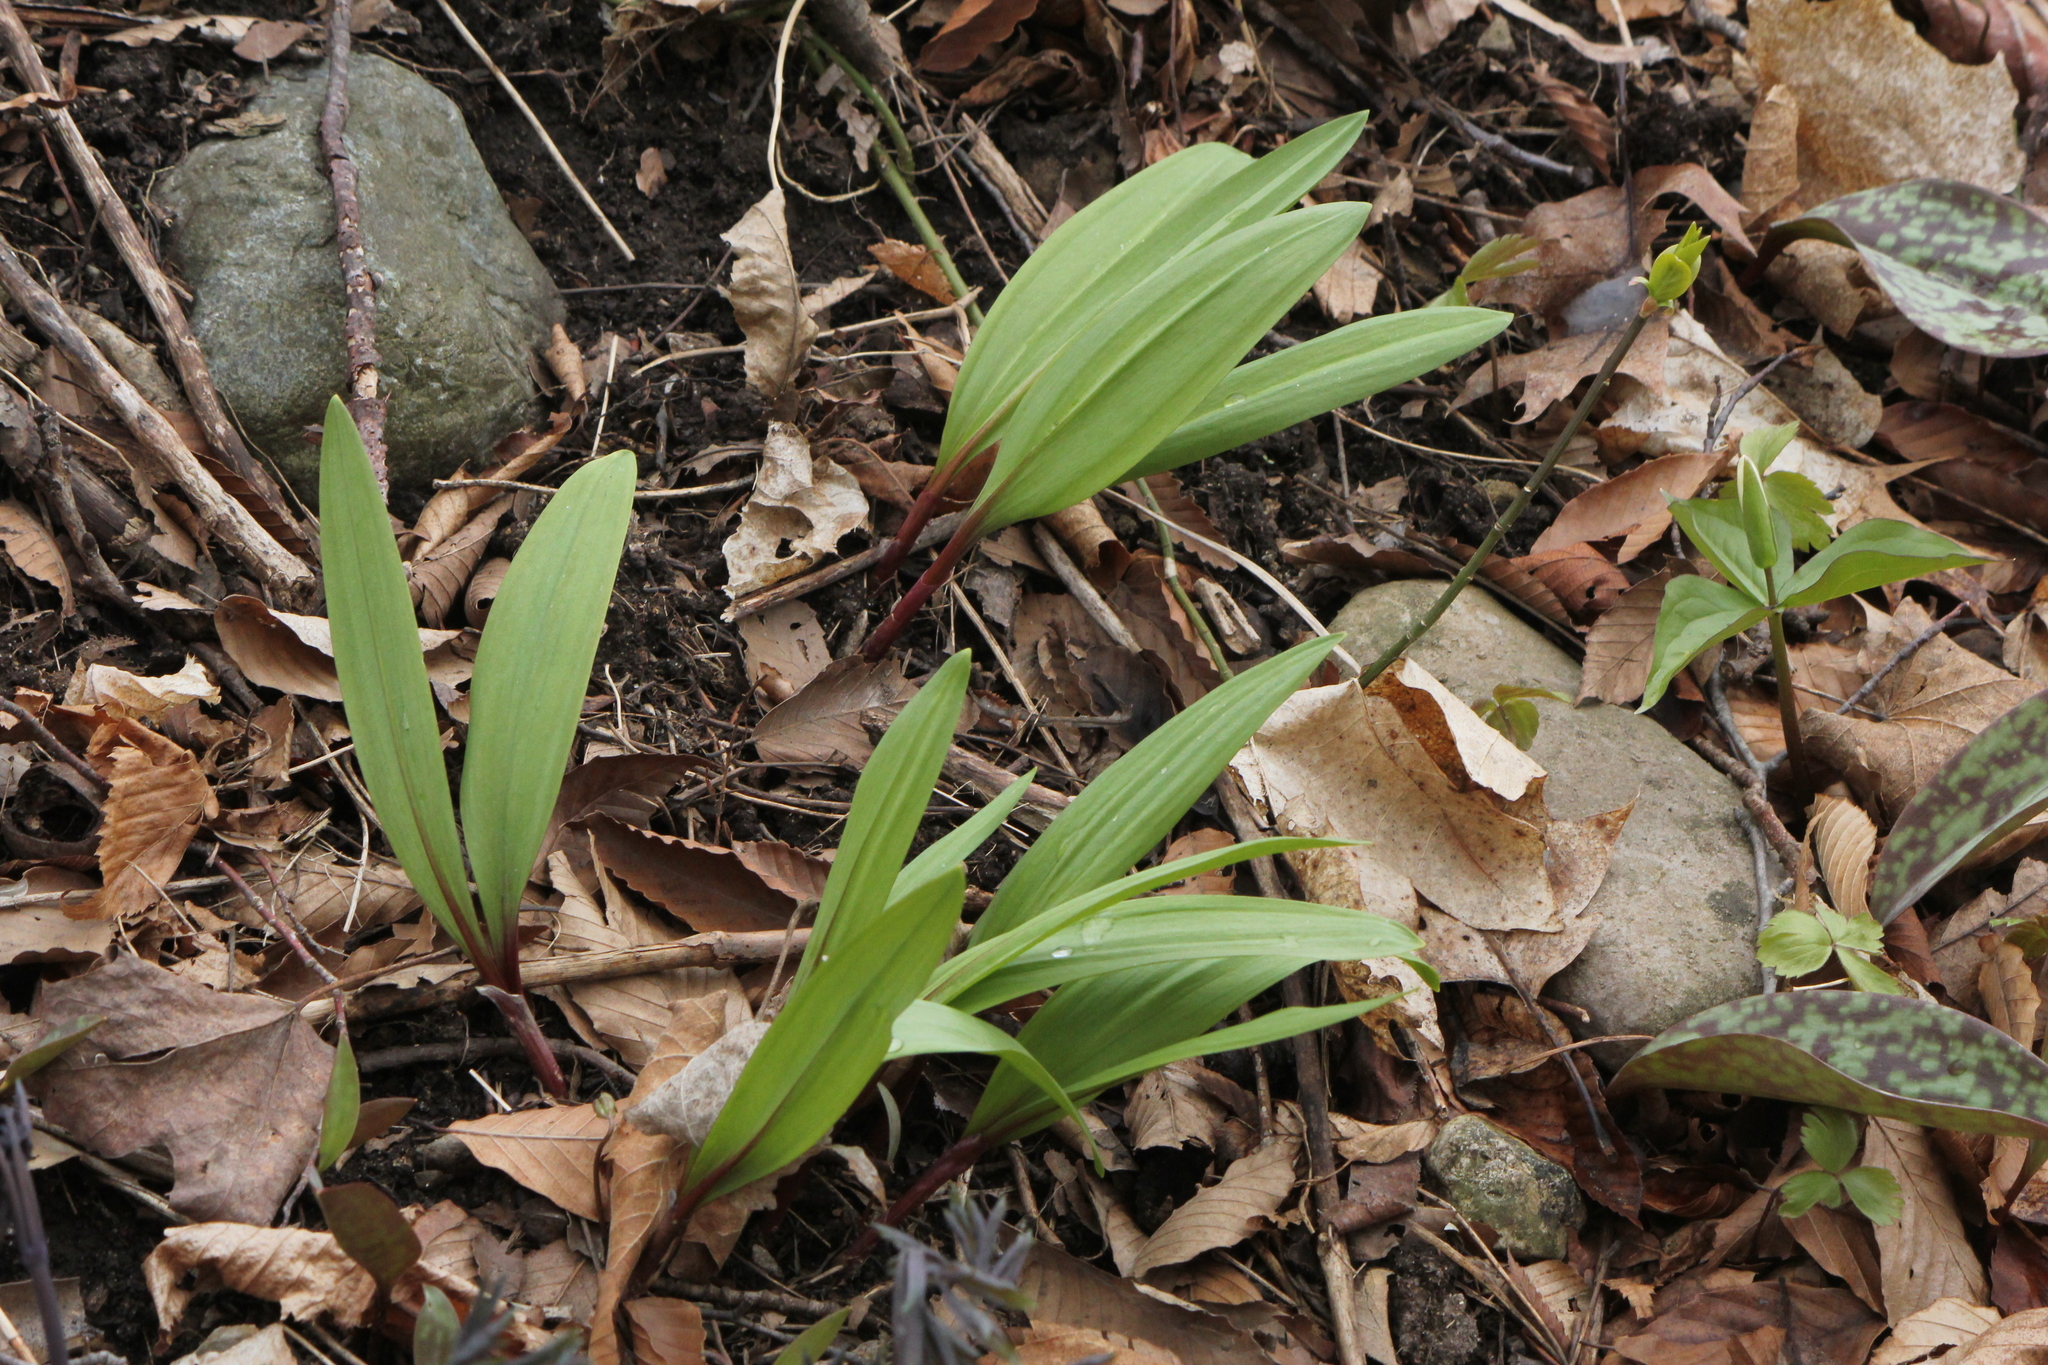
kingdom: Plantae
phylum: Tracheophyta
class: Liliopsida
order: Asparagales
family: Amaryllidaceae
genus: Allium
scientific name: Allium tricoccum
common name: Ramp
